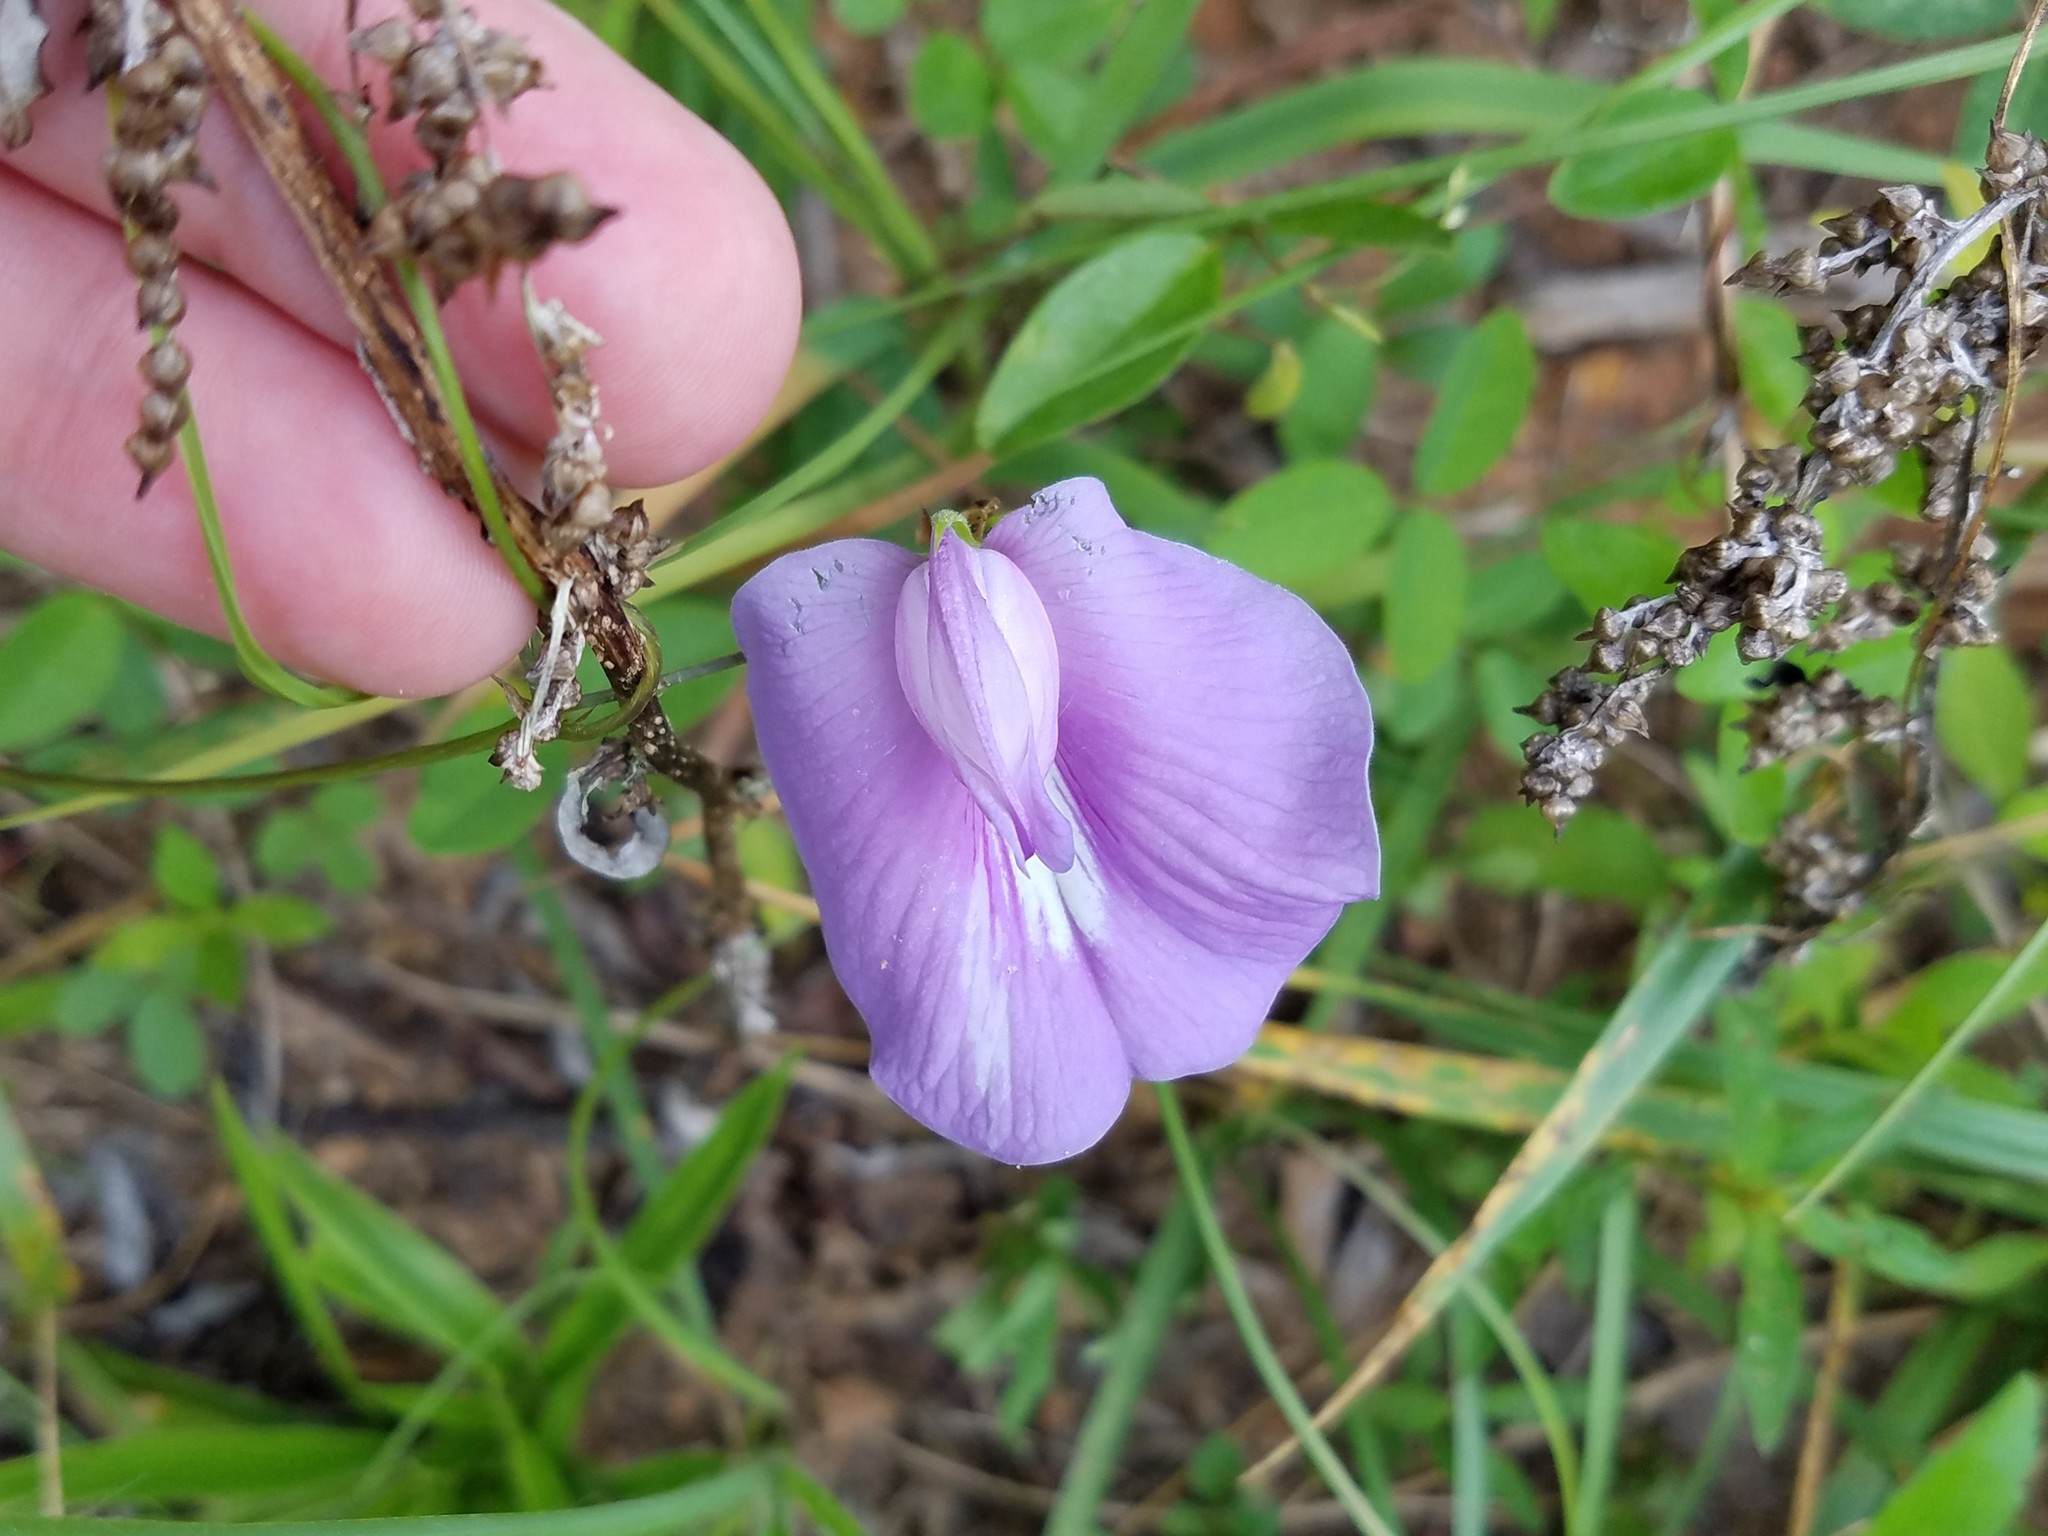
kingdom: Plantae
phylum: Tracheophyta
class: Magnoliopsida
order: Fabales
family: Fabaceae
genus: Centrosema
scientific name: Centrosema virginianum
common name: Butterfly-pea
